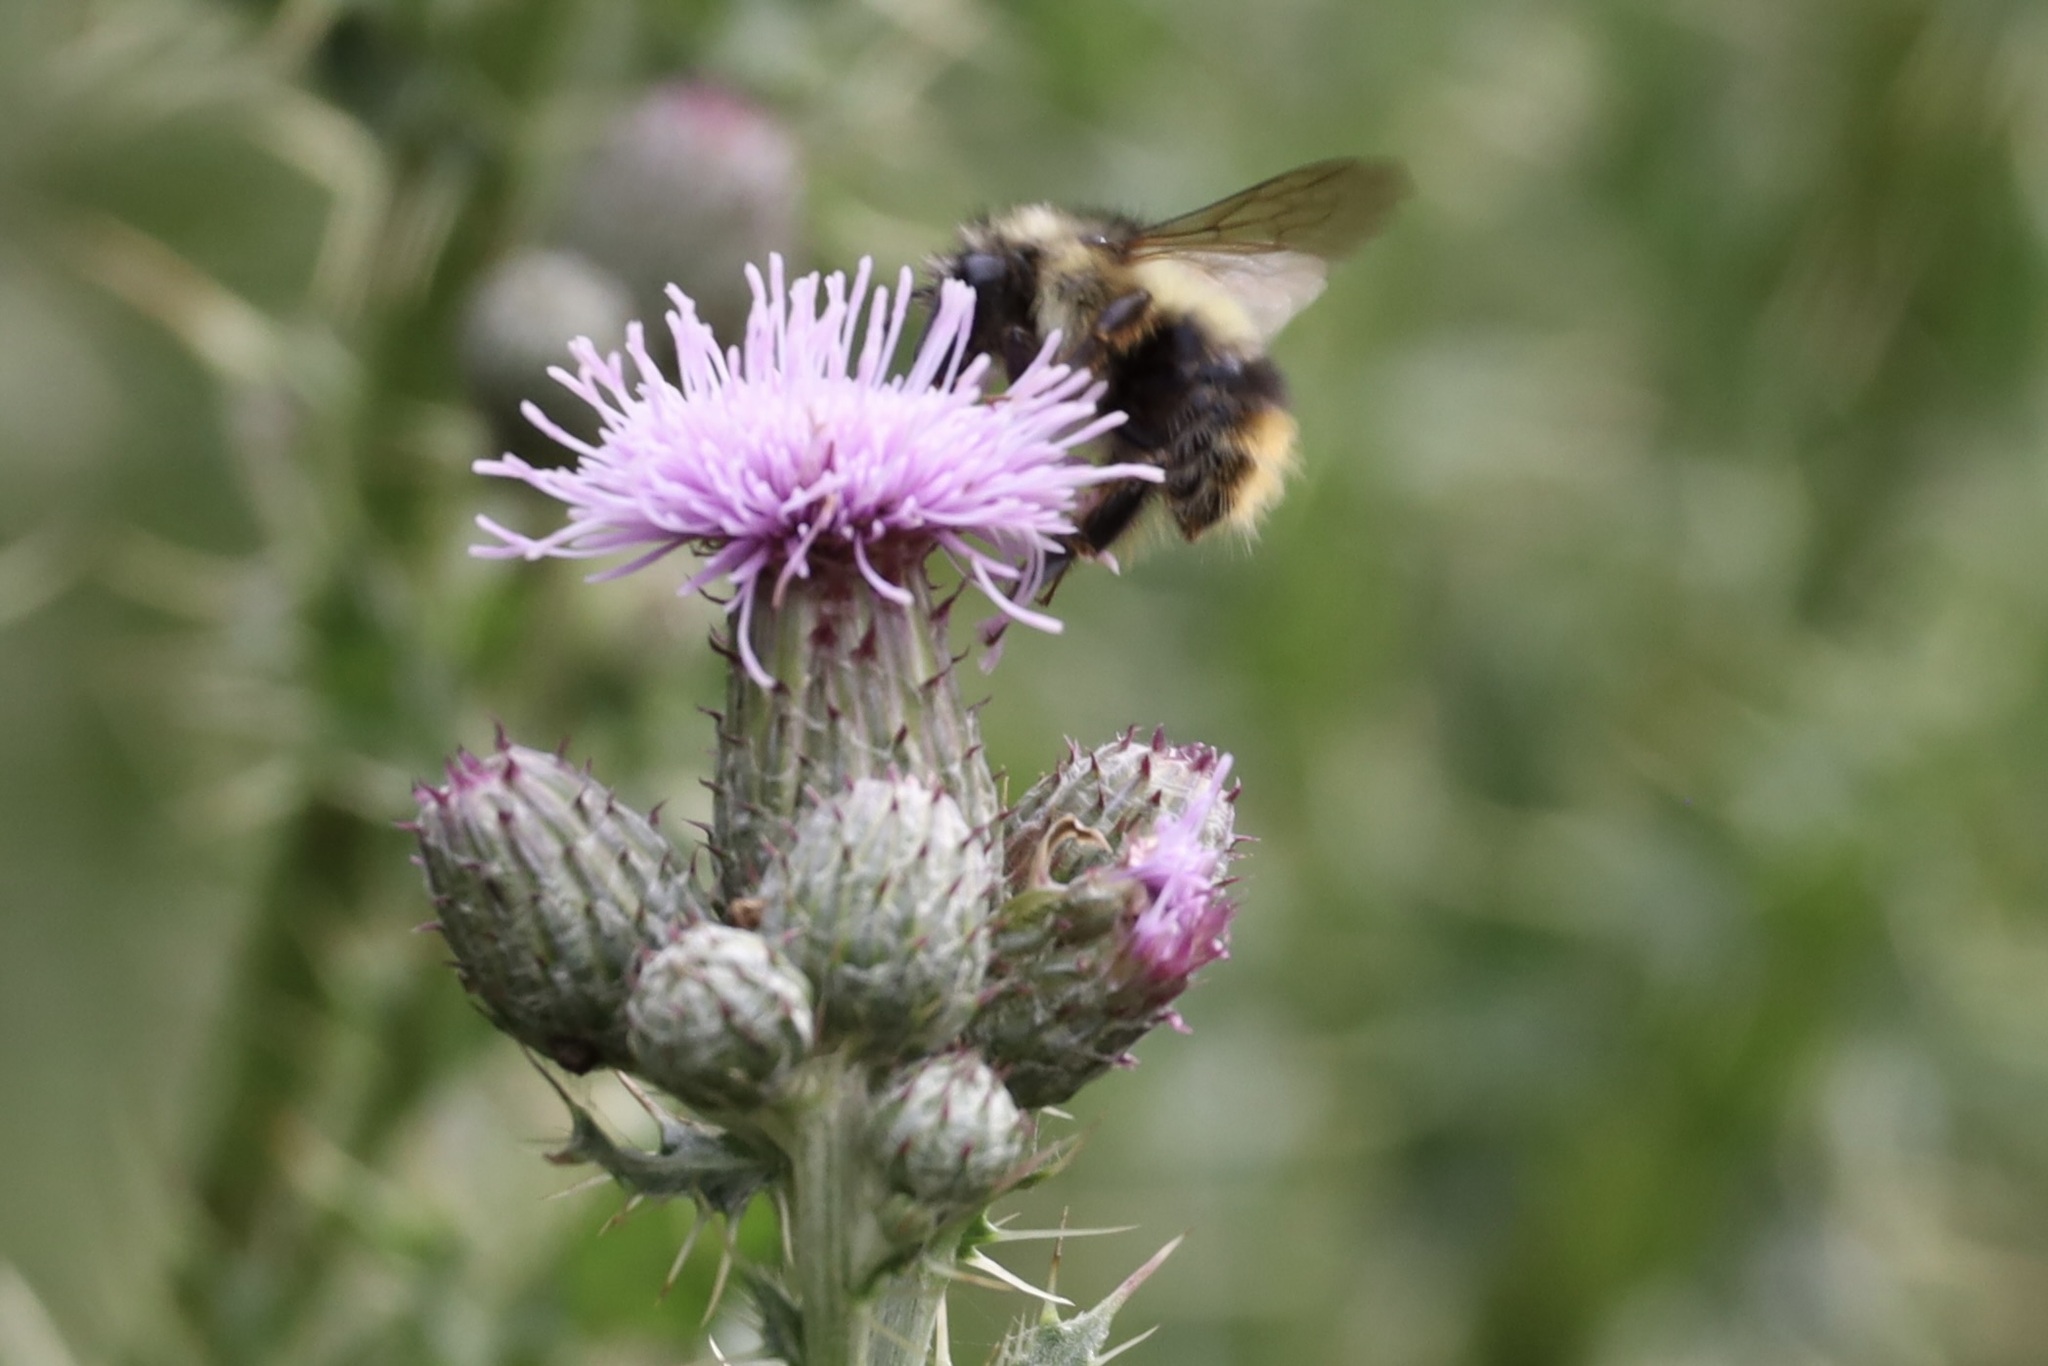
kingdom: Animalia
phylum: Arthropoda
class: Insecta
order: Hymenoptera
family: Apidae
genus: Bombus
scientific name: Bombus mixtus
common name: Fuzzy-horned bumble bee
